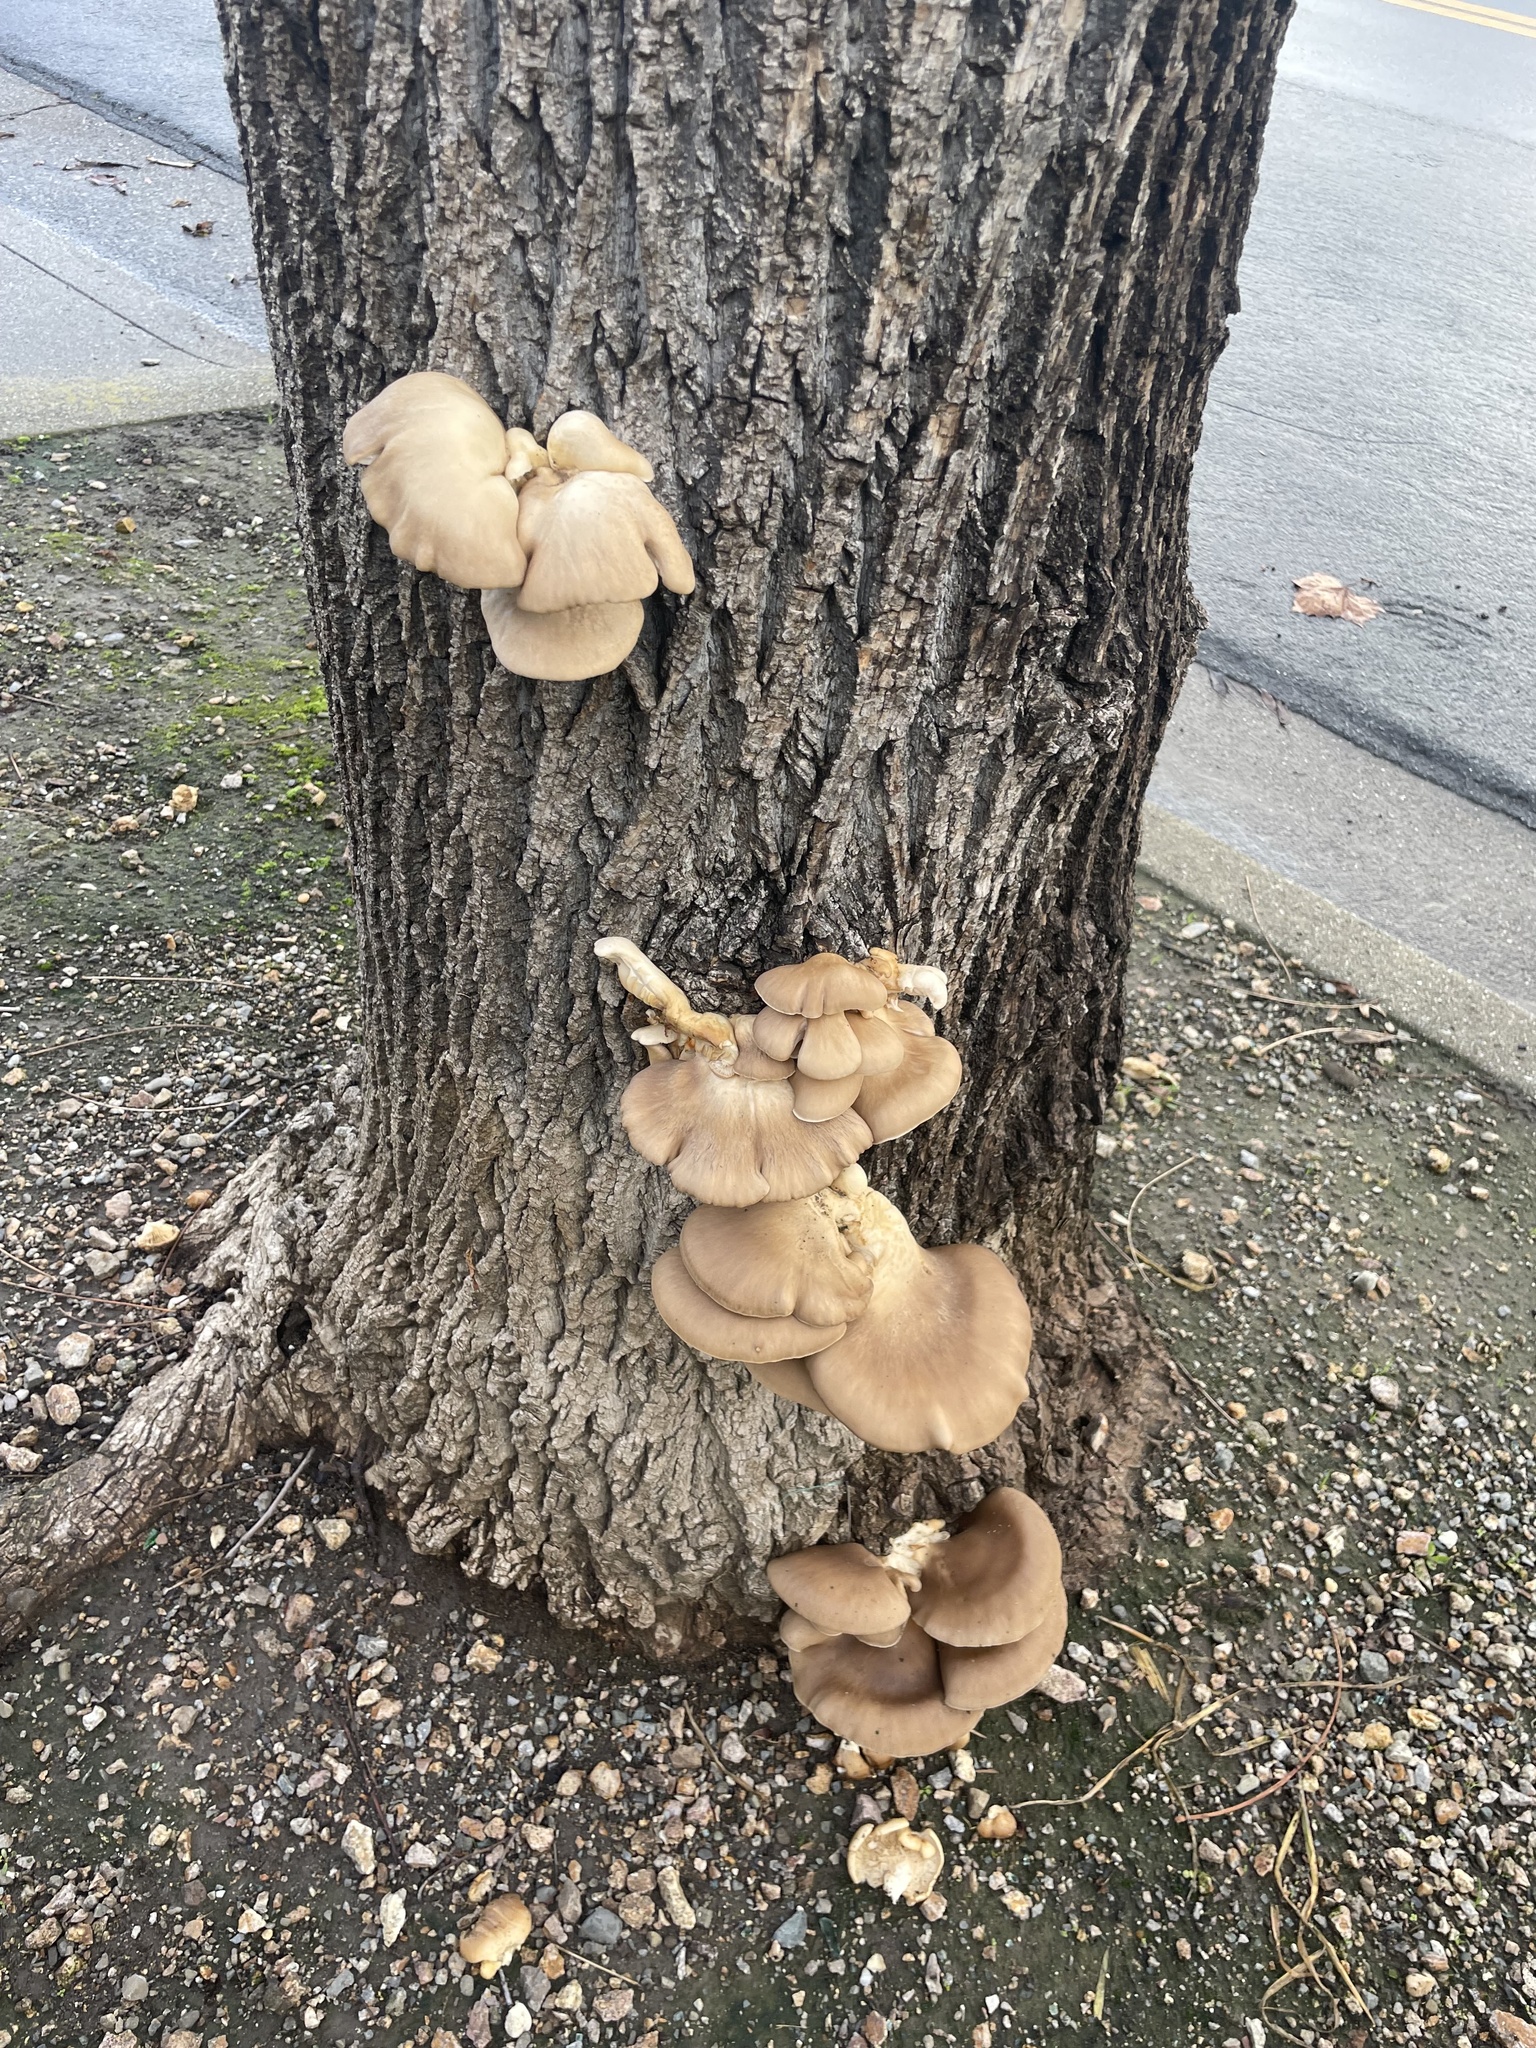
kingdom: Fungi
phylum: Basidiomycota
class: Agaricomycetes
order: Agaricales
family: Pleurotaceae
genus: Pleurotus
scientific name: Pleurotus ostreatus
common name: Oyster mushroom
